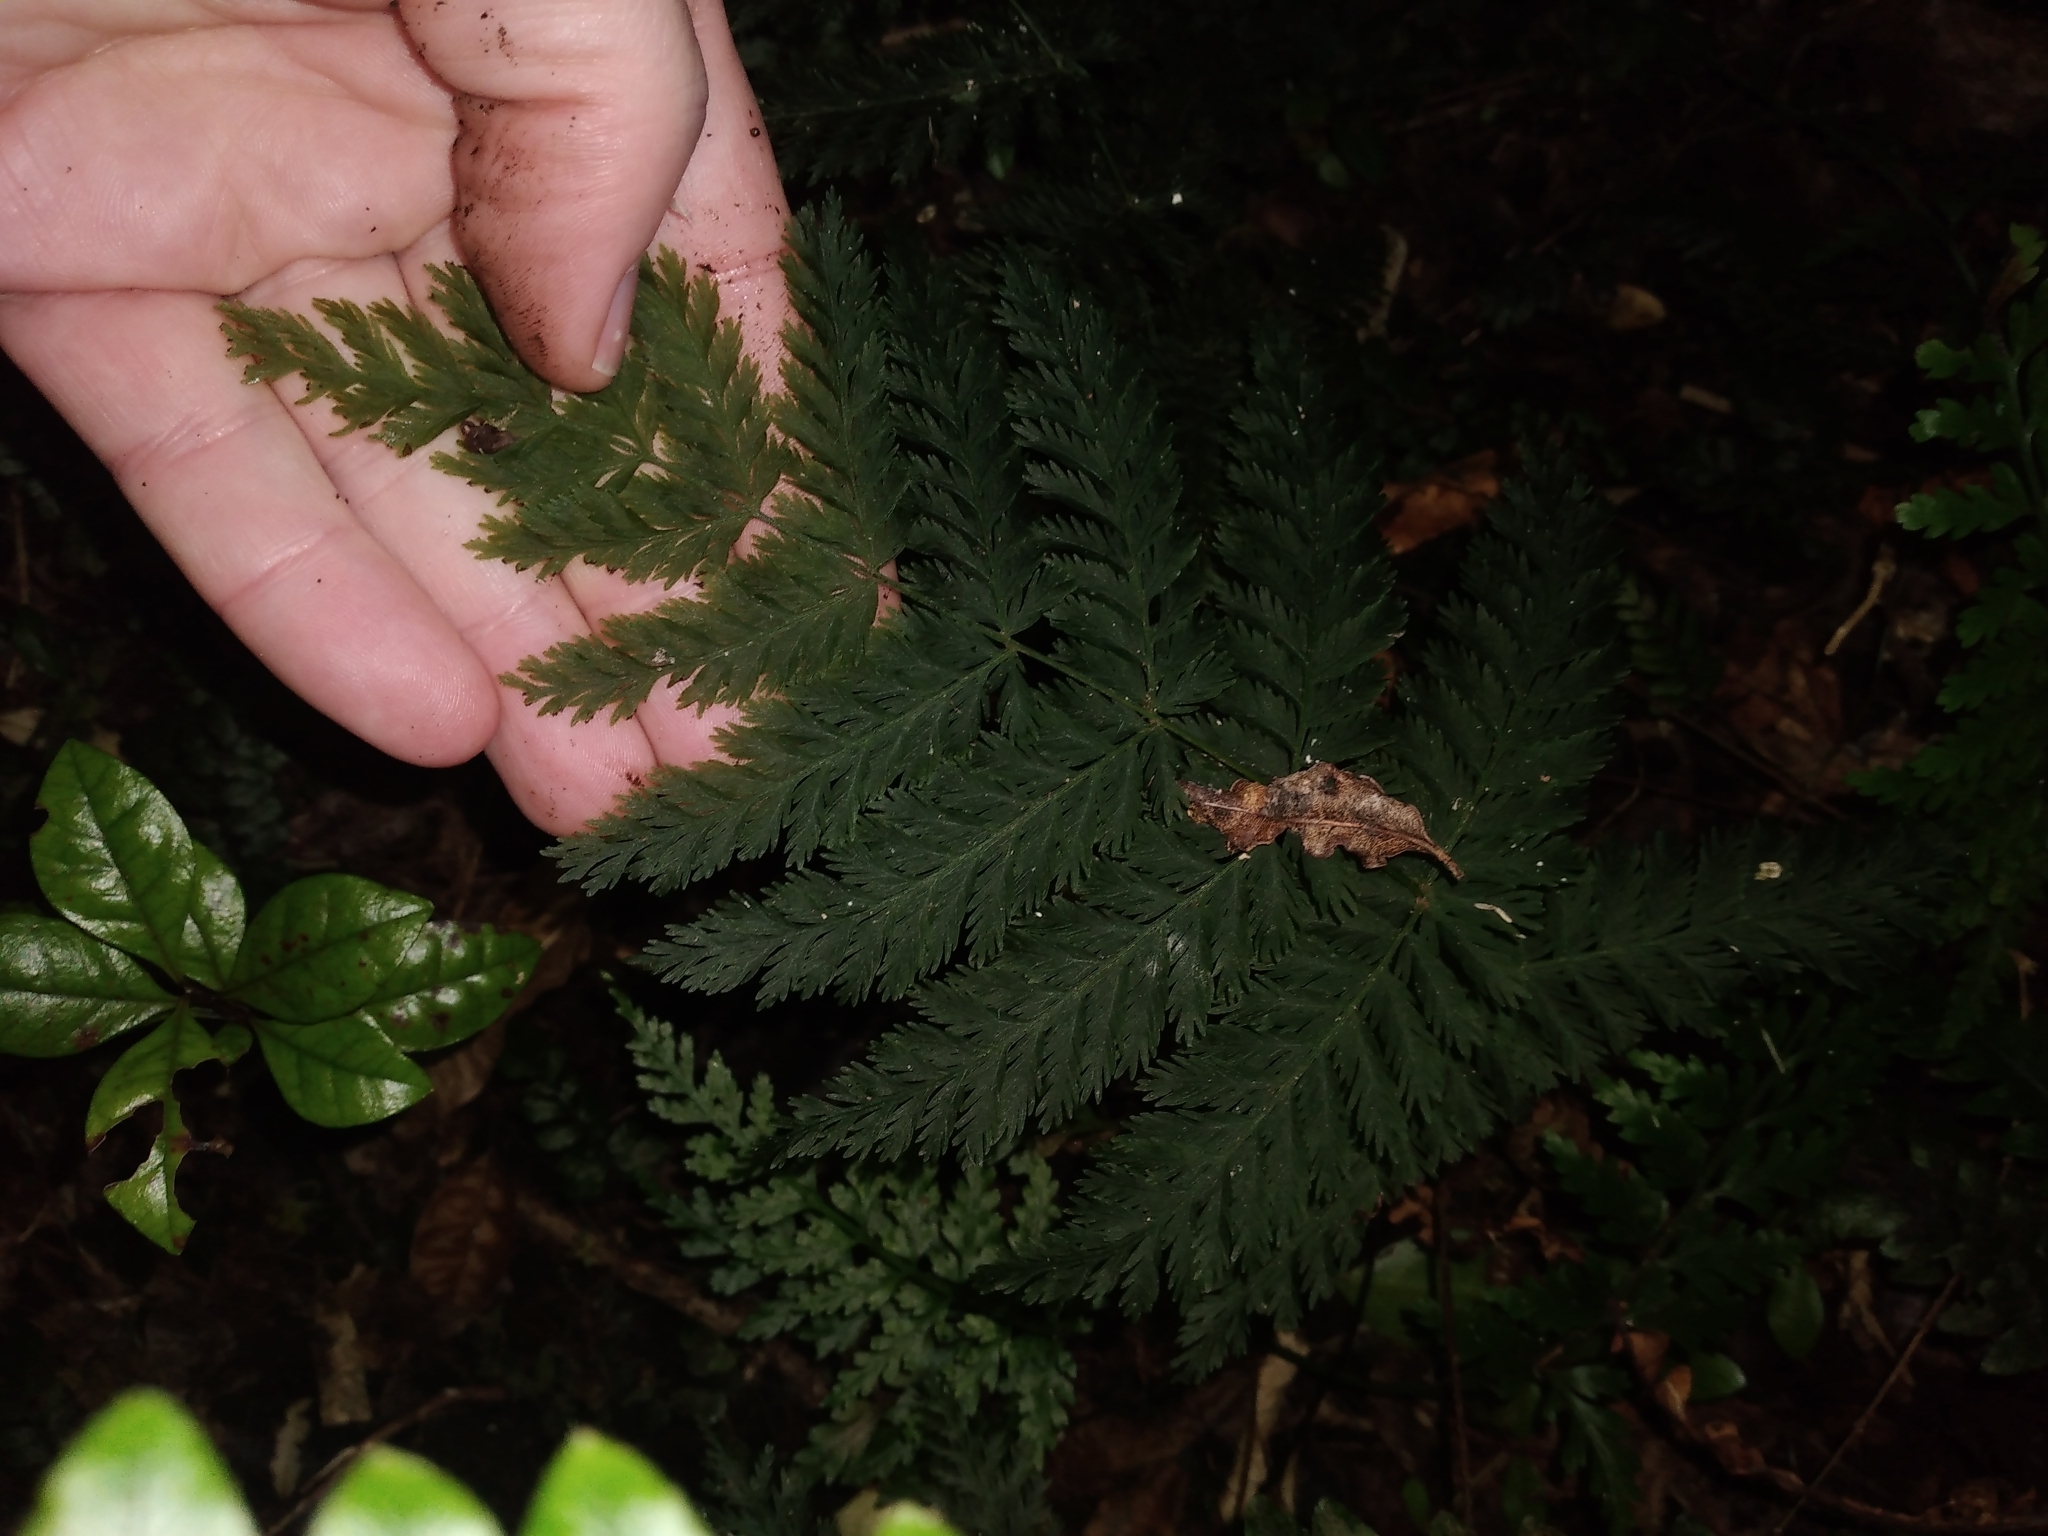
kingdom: Plantae
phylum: Tracheophyta
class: Polypodiopsida
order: Osmundales
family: Osmundaceae
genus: Leptopteris
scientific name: Leptopteris hymenophylloides
